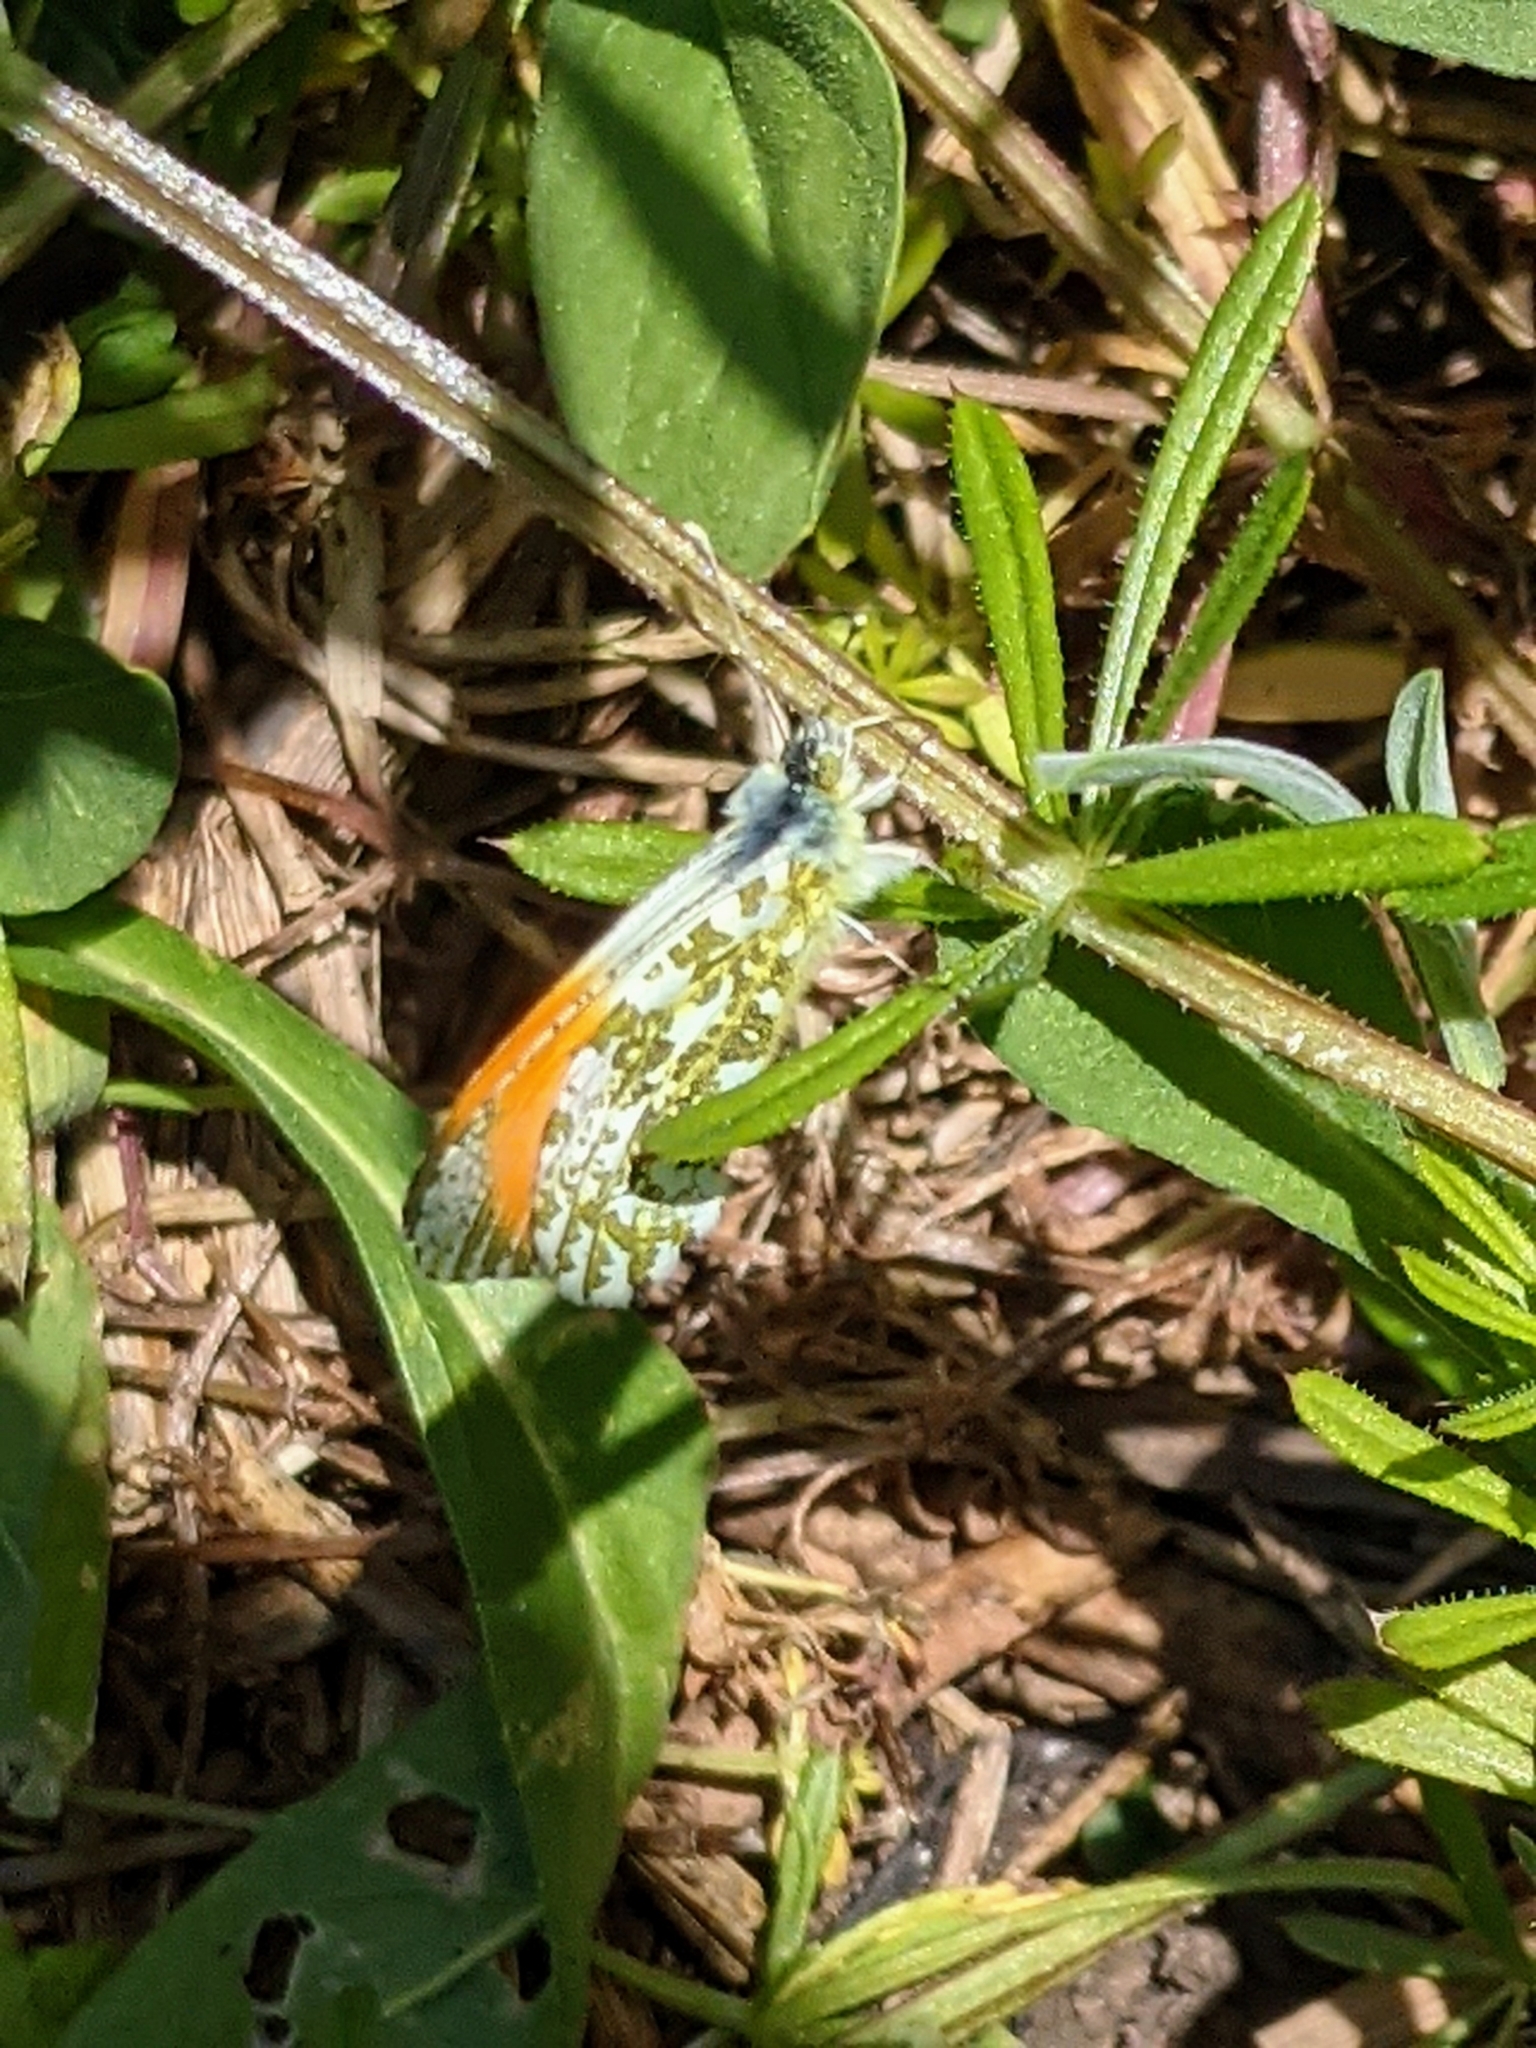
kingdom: Animalia
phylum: Arthropoda
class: Insecta
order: Lepidoptera
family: Pieridae
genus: Anthocharis
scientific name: Anthocharis cardamines
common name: Orange-tip
